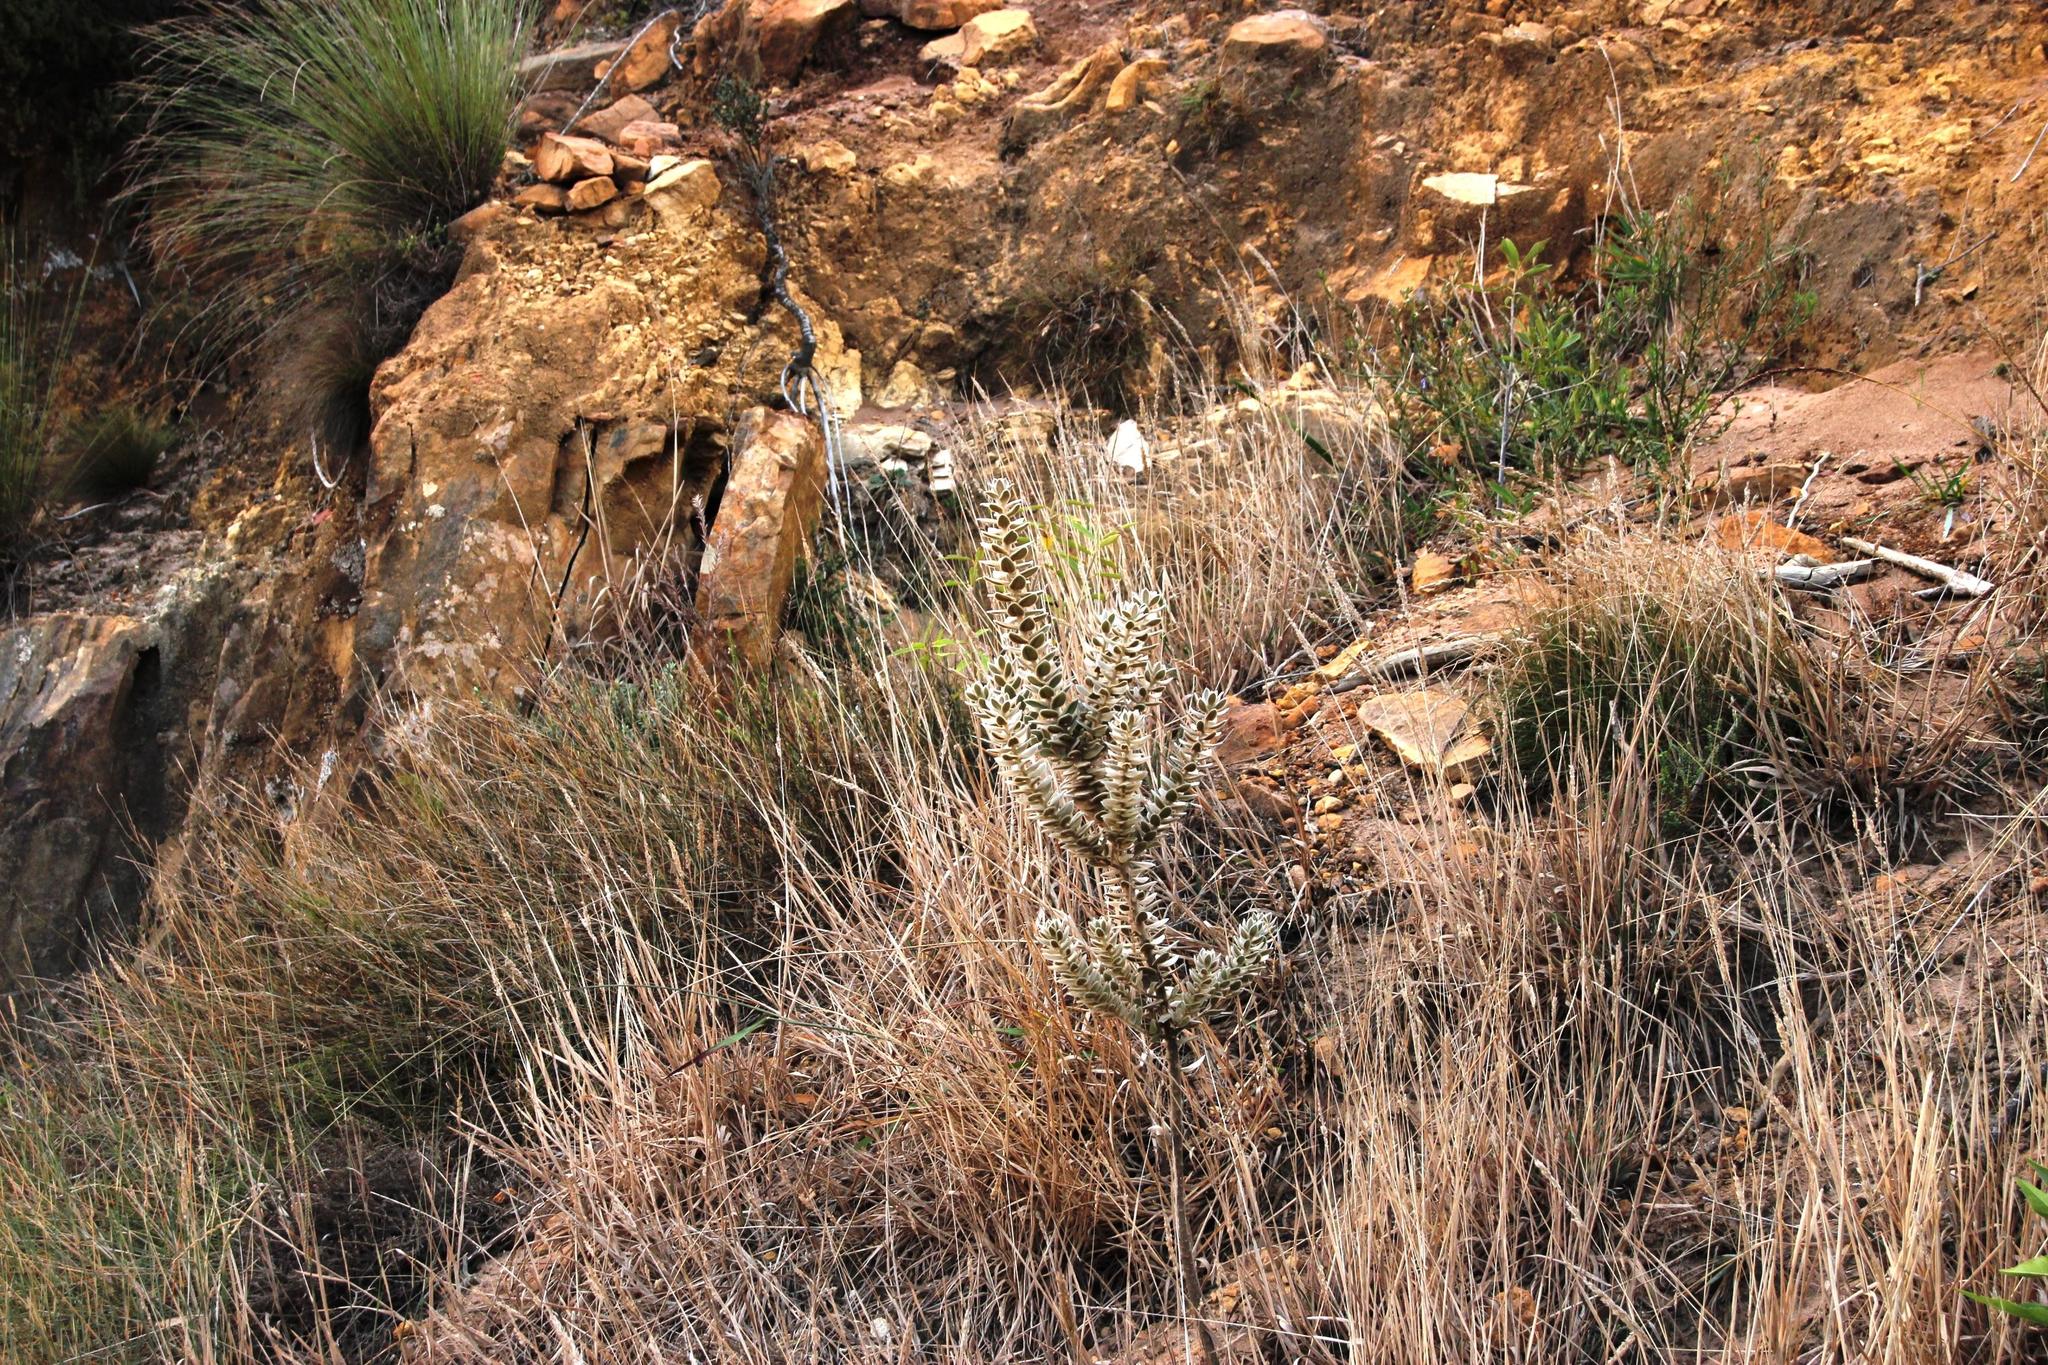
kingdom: Plantae
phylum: Tracheophyta
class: Magnoliopsida
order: Fabales
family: Fabaceae
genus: Xiphotheca
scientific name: Xiphotheca fruticosa
